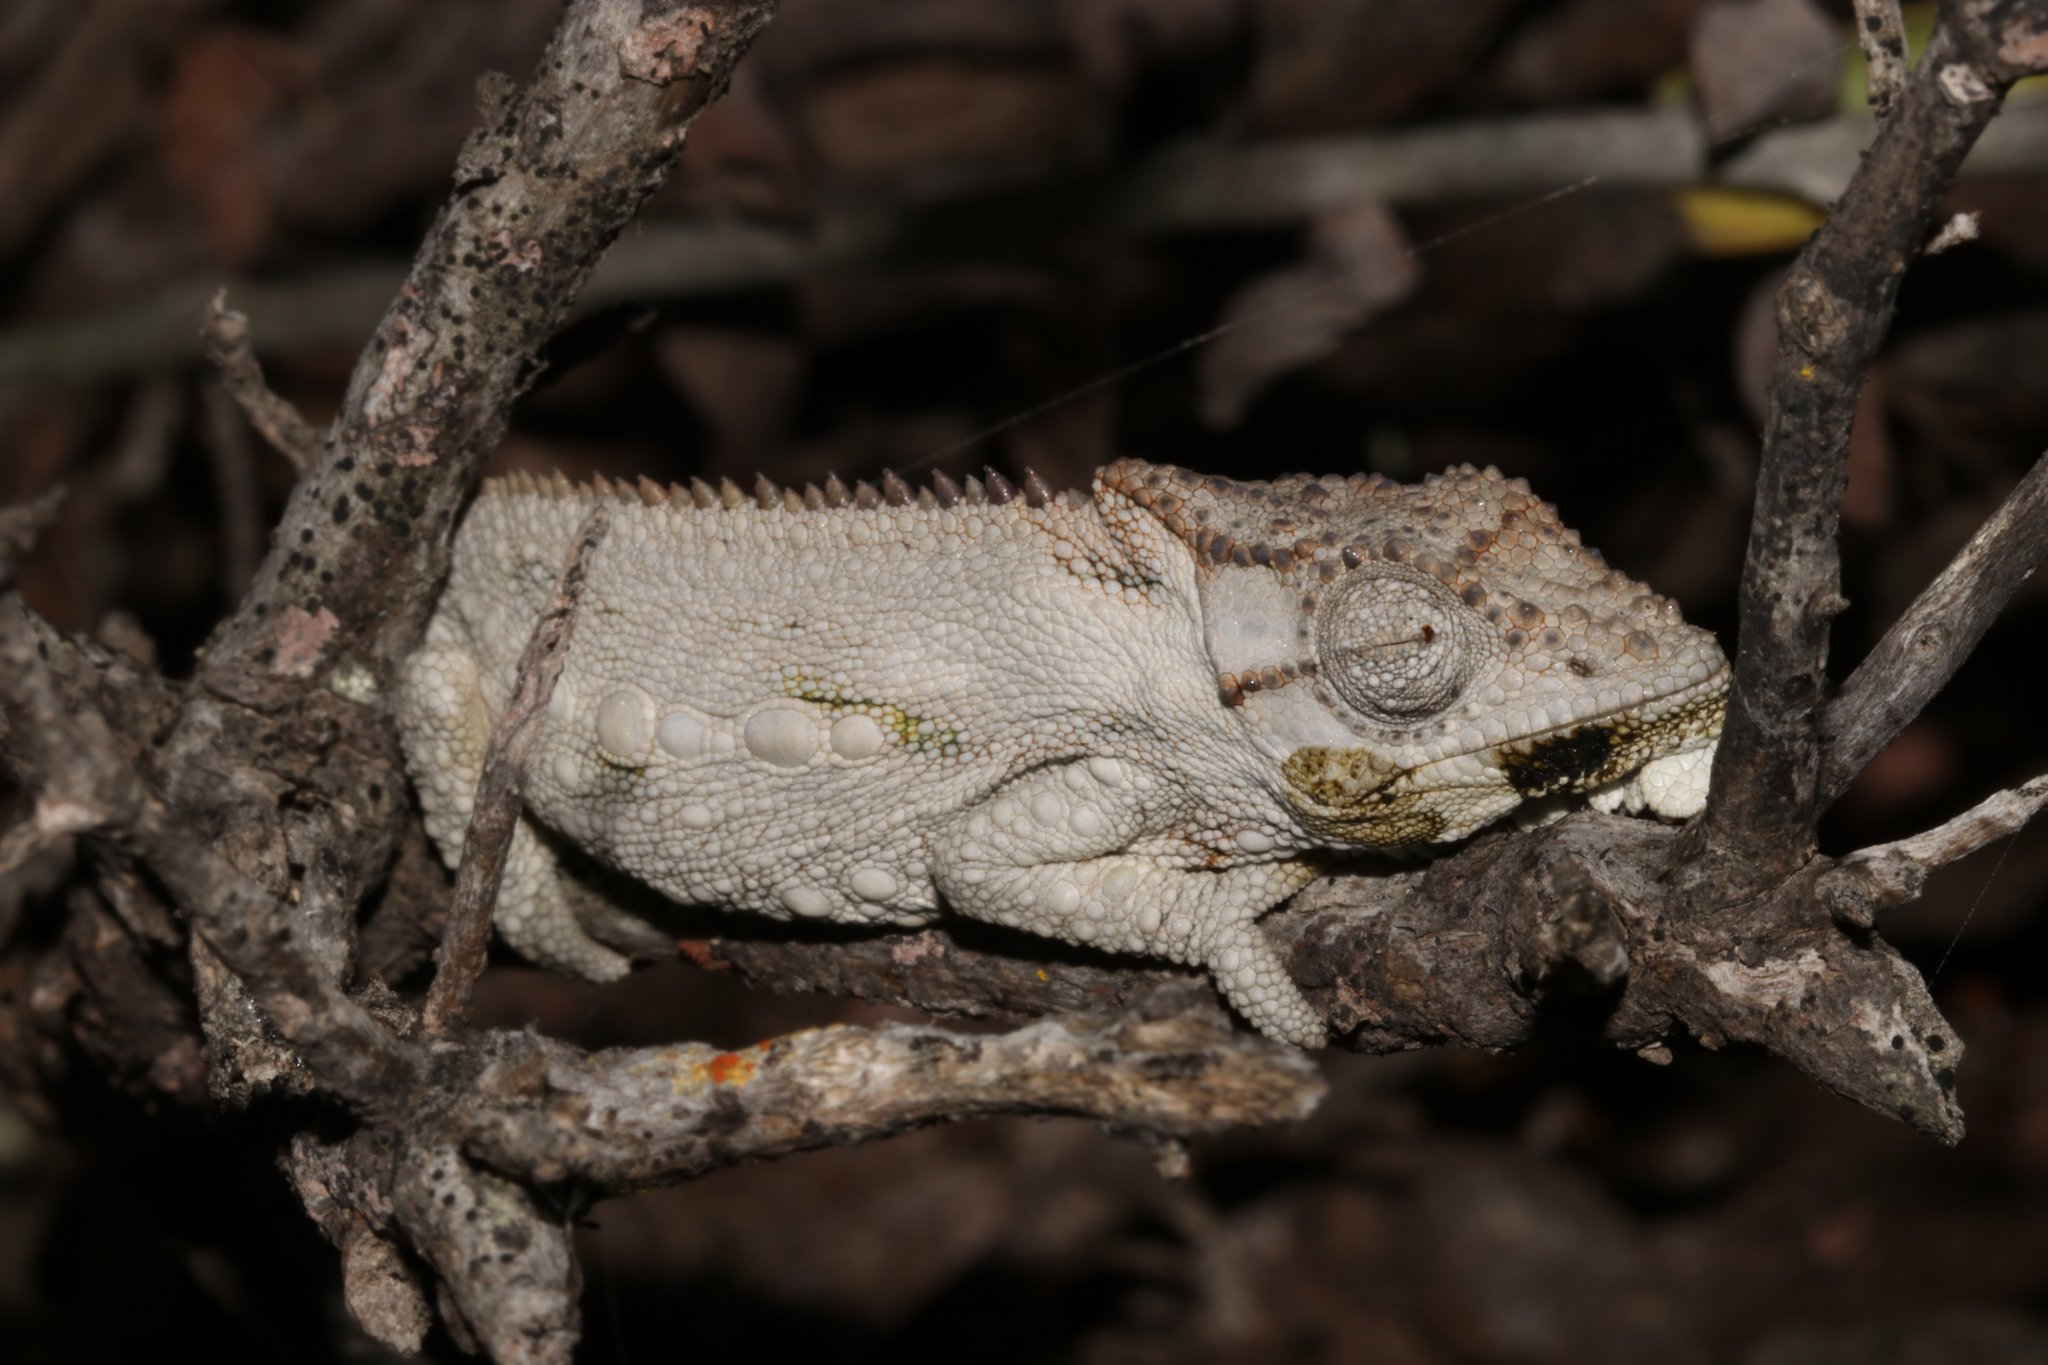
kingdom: Animalia
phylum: Chordata
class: Squamata
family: Chamaeleonidae
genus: Bradypodion
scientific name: Bradypodion occidentale
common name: Western dwarf chameleon
